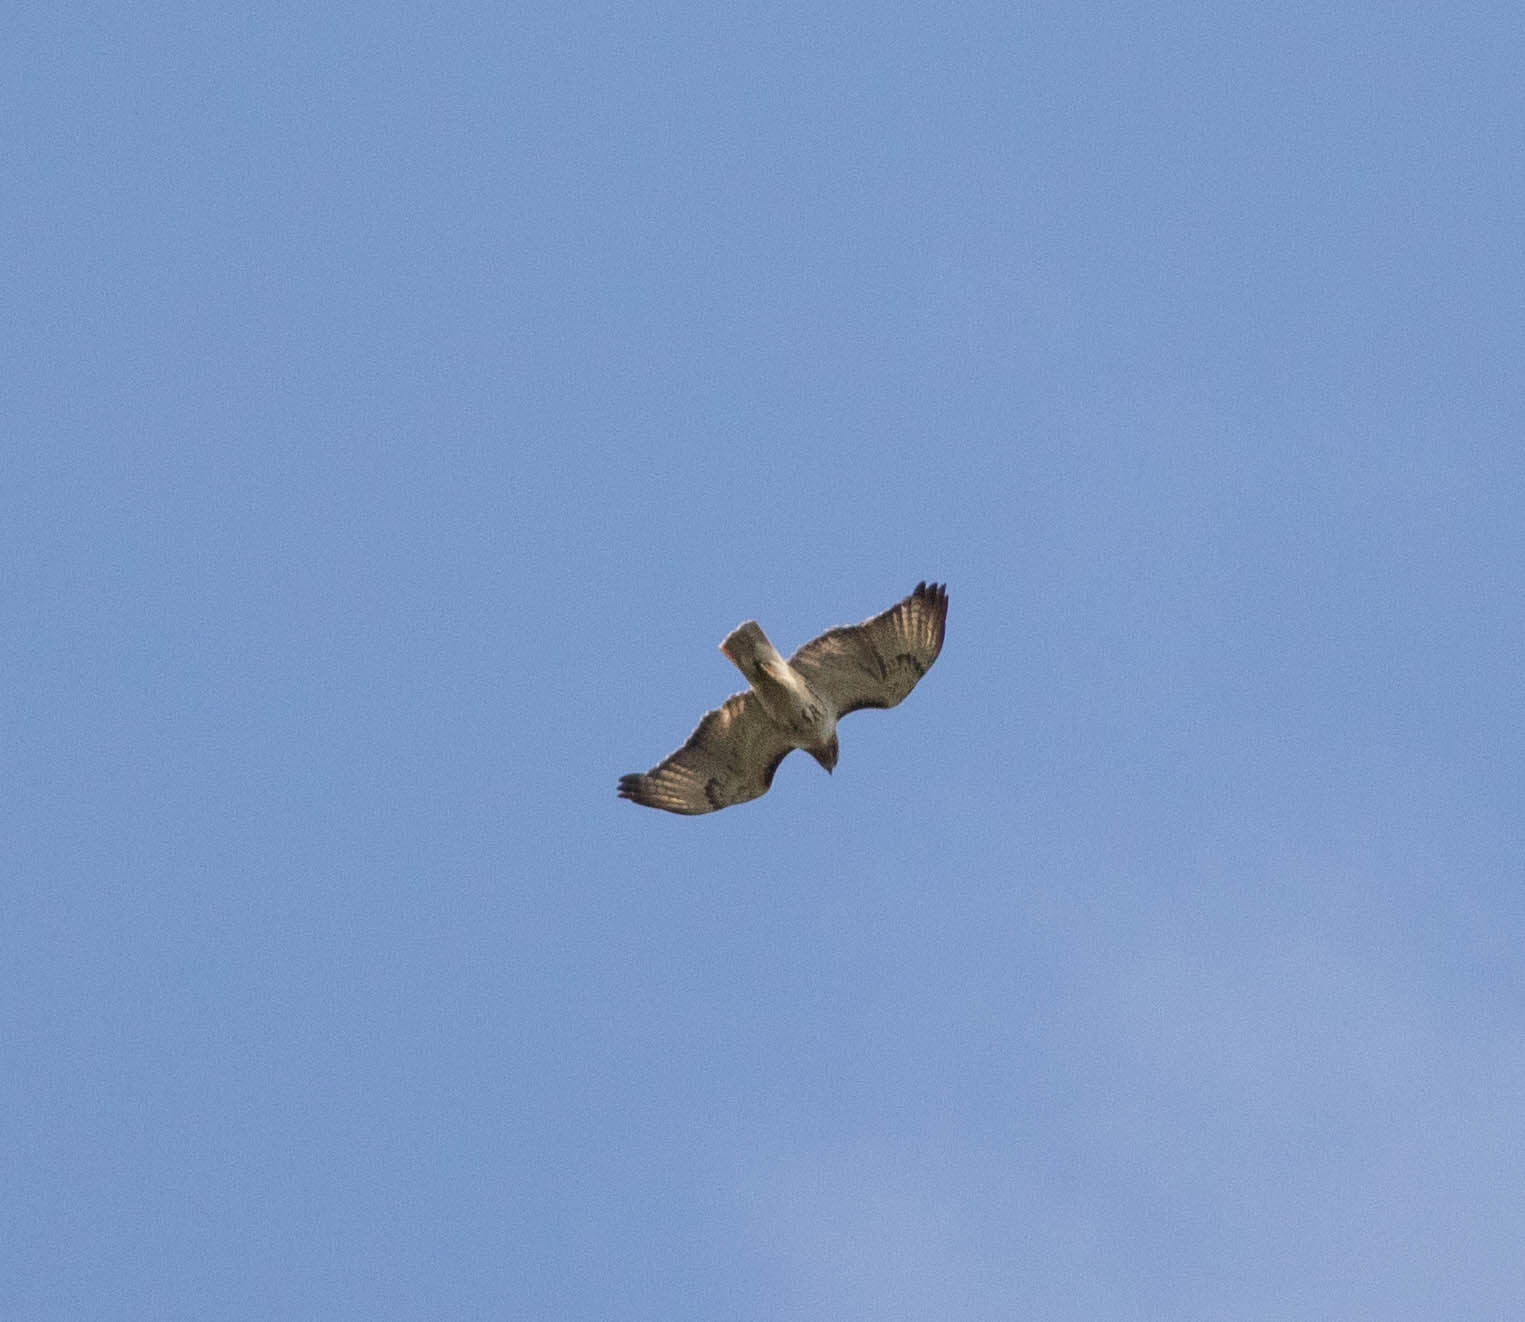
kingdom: Animalia
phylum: Chordata
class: Aves
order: Accipitriformes
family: Accipitridae
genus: Buteo
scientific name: Buteo jamaicensis
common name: Red-tailed hawk
